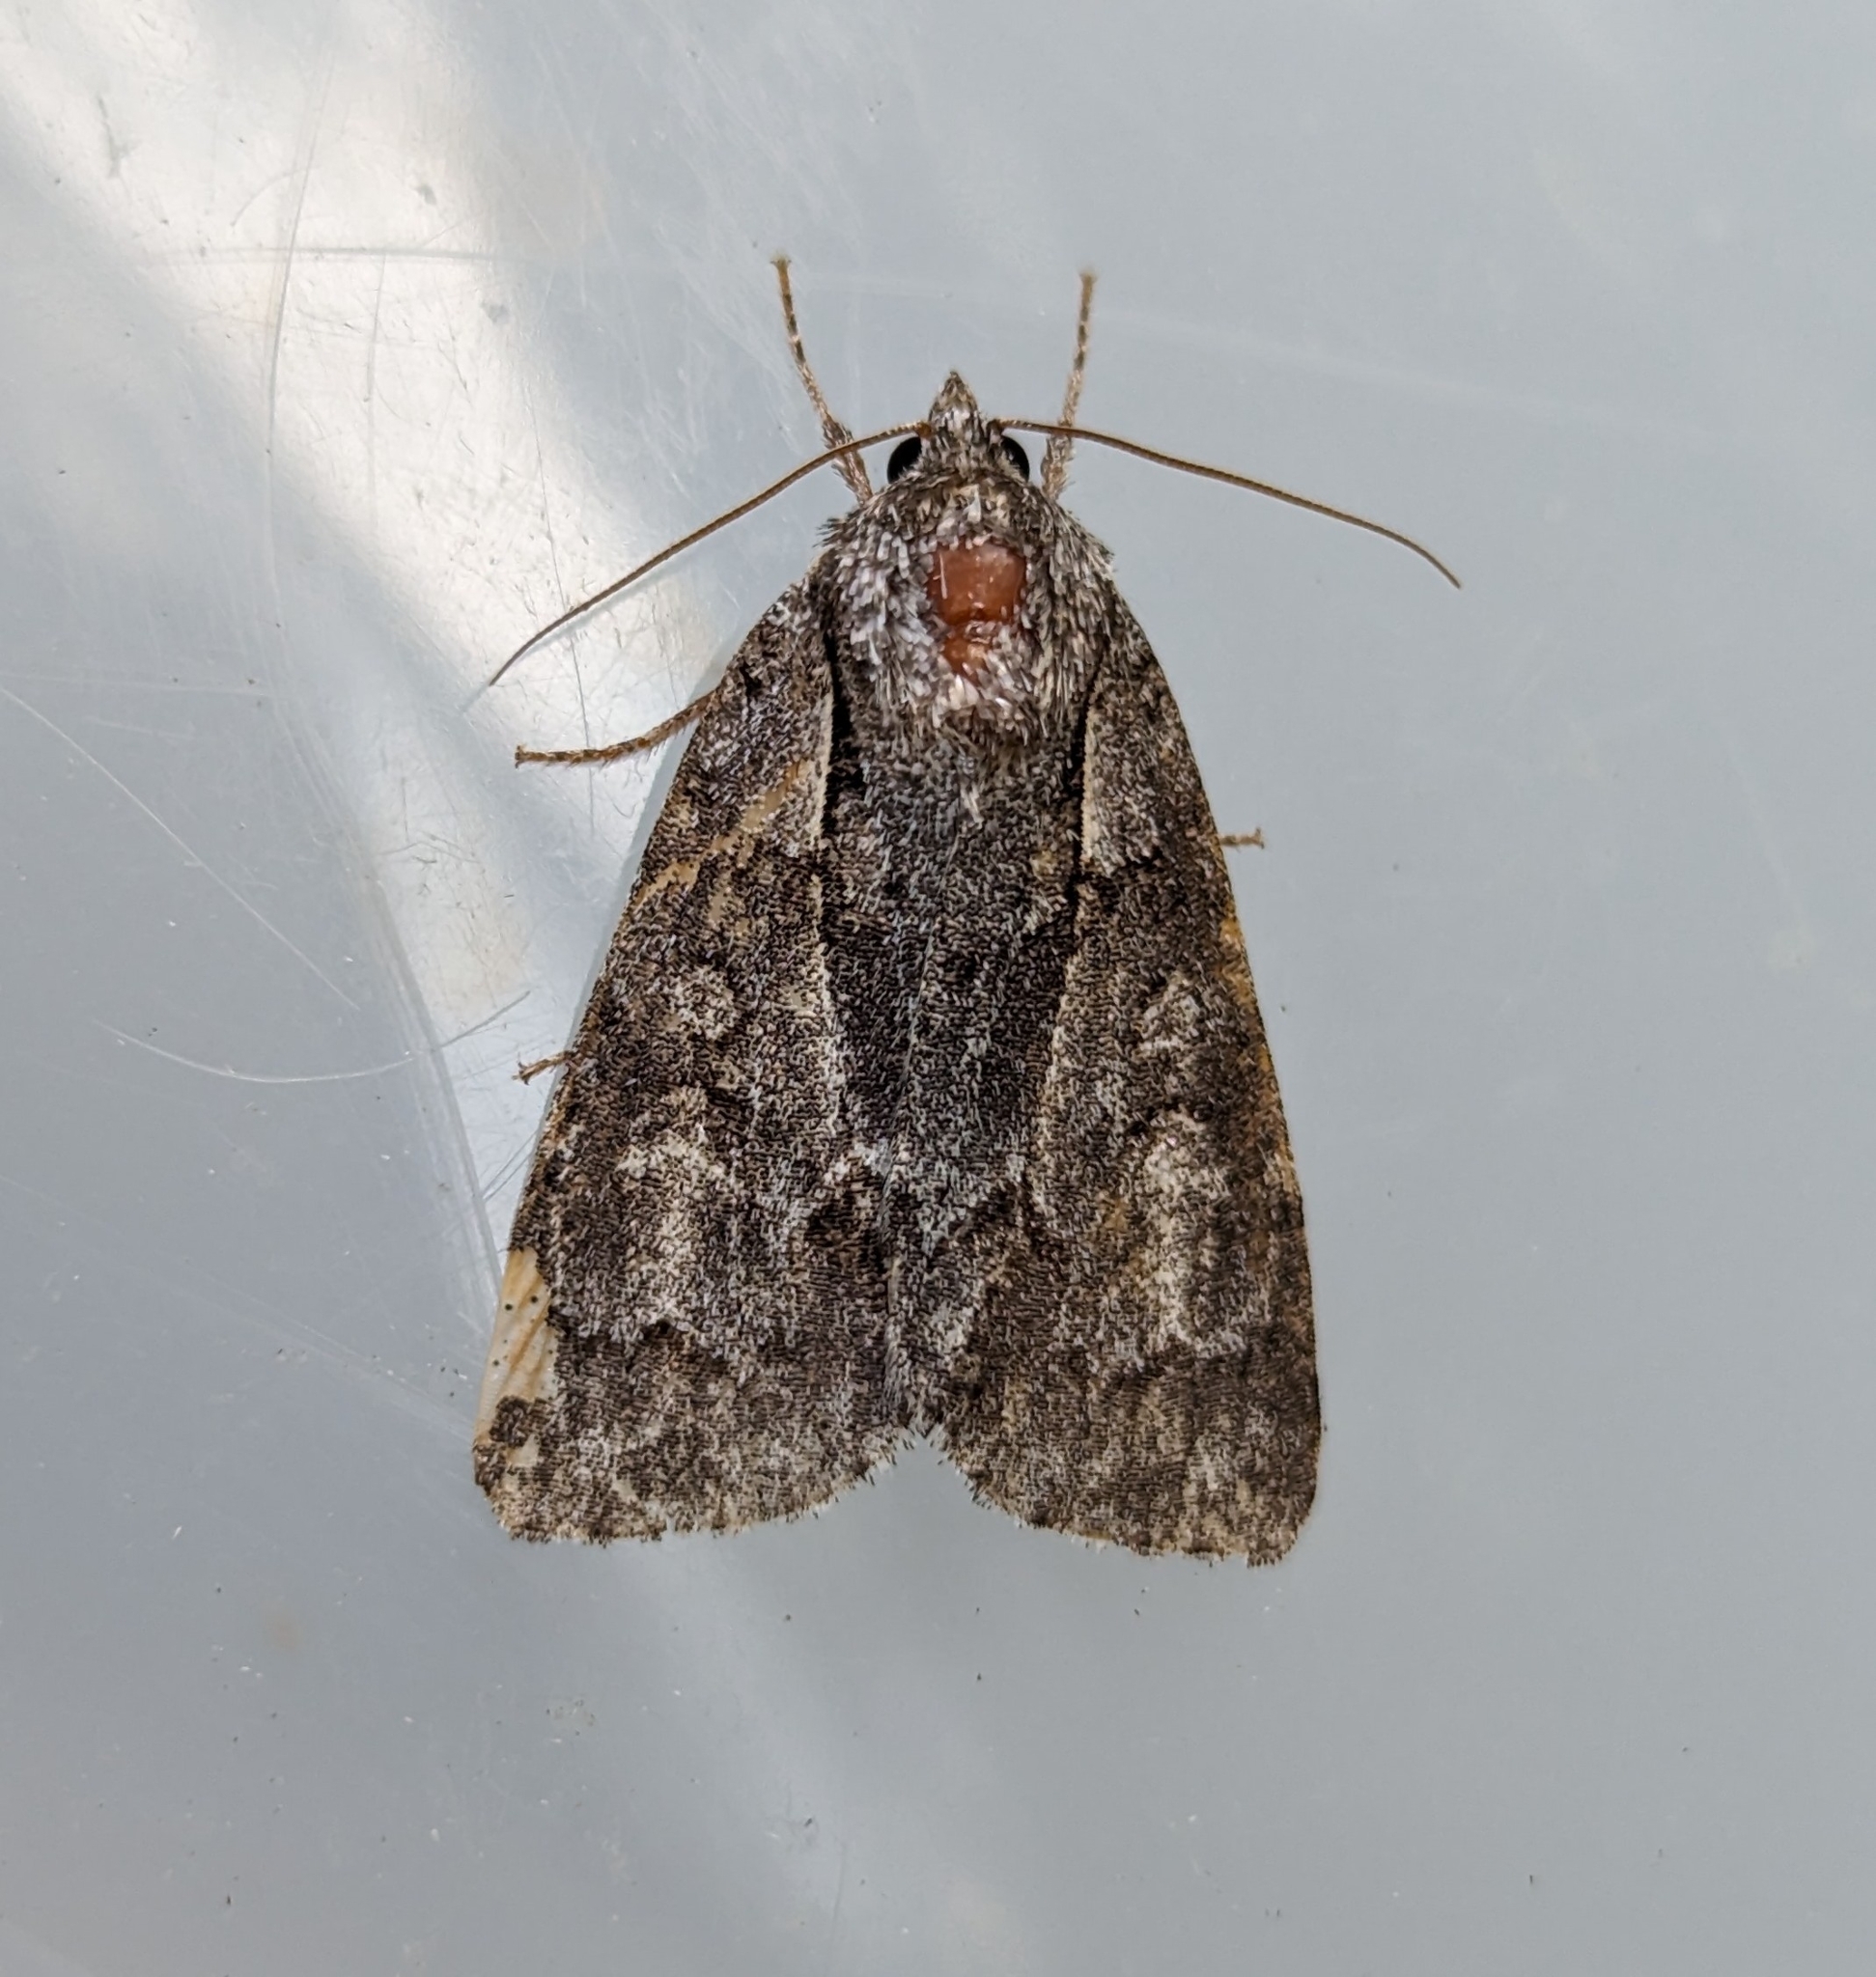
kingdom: Animalia
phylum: Arthropoda
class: Insecta
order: Lepidoptera
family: Noctuidae
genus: Acronicta
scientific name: Acronicta grisea
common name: Gray dagger
